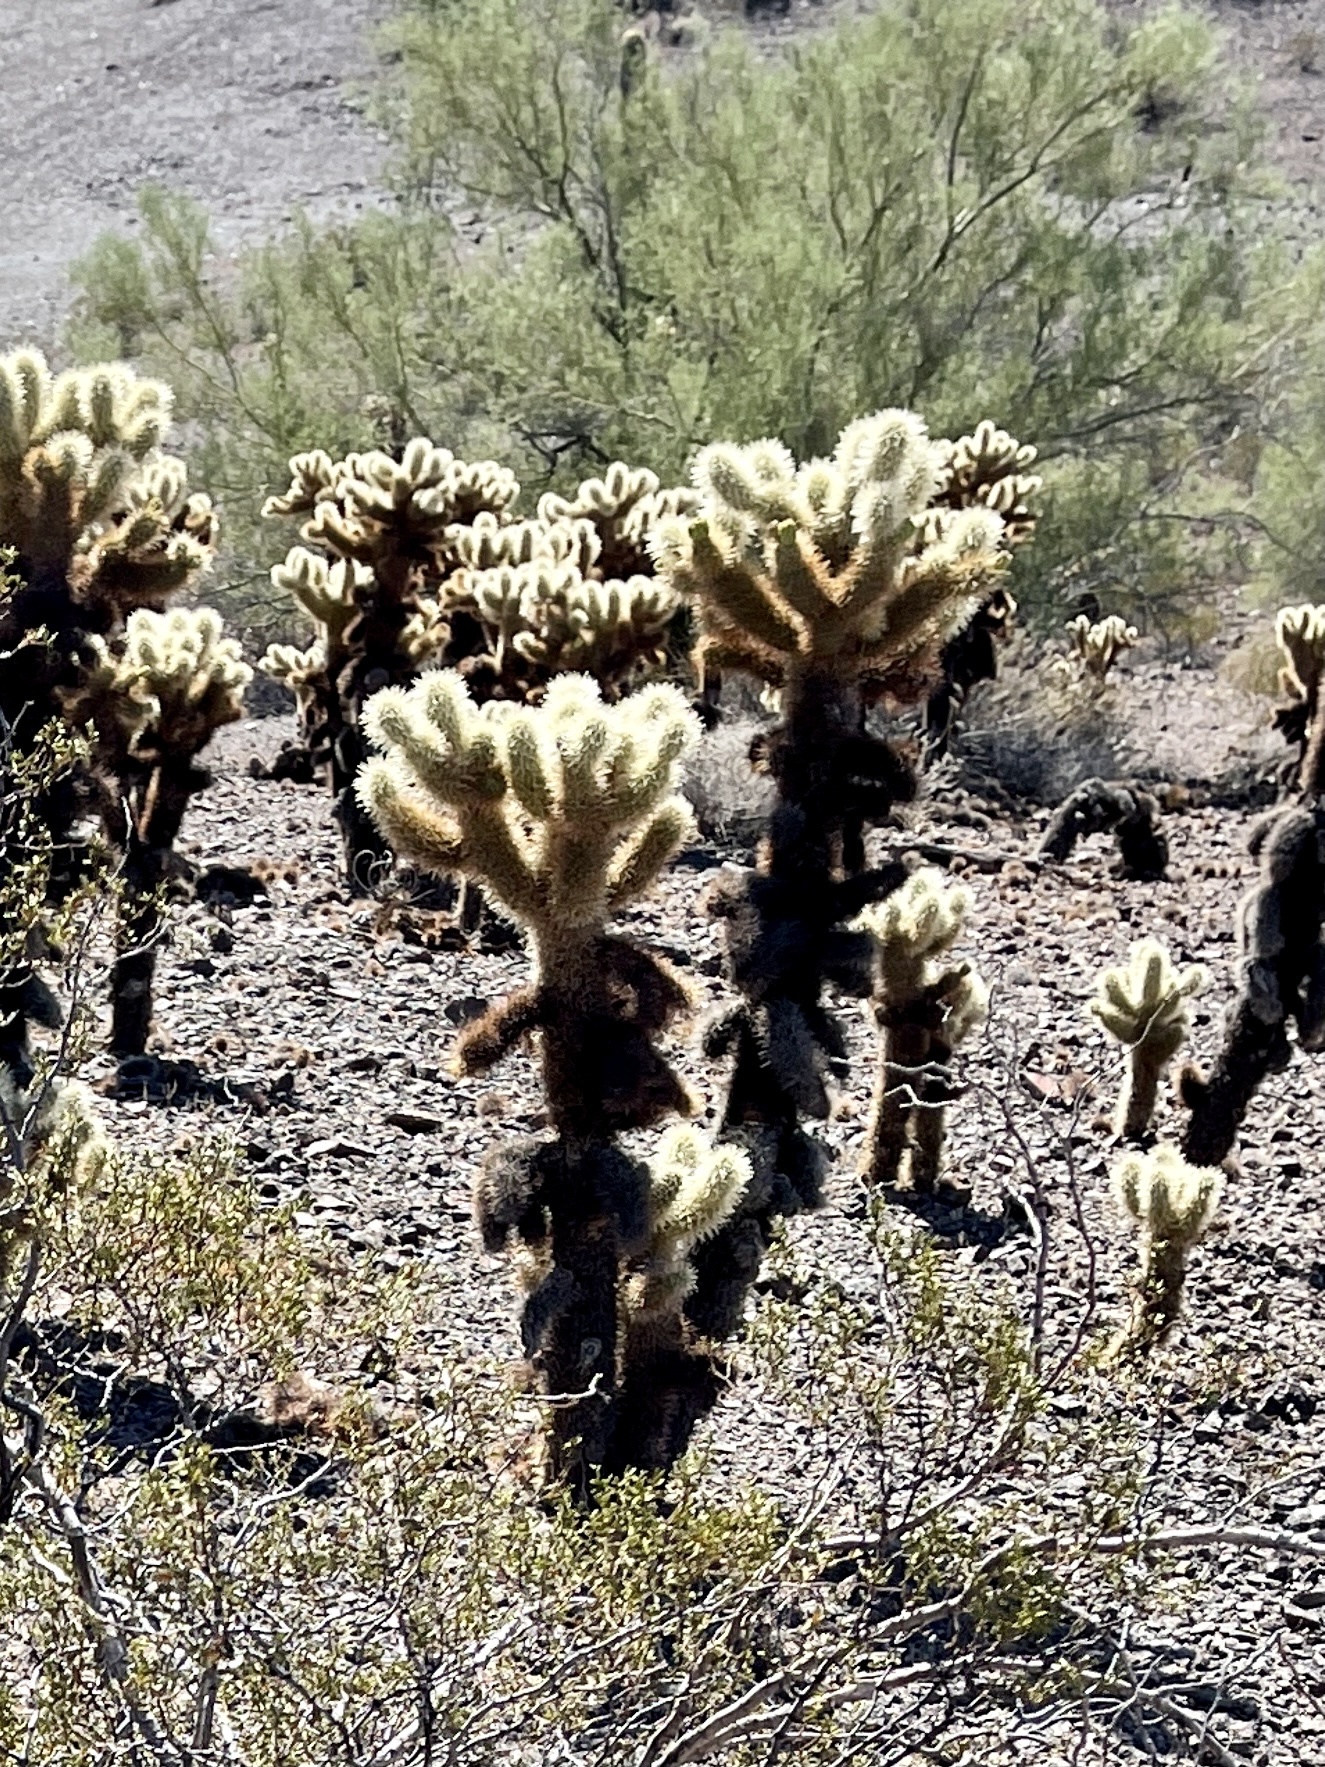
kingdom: Plantae
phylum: Tracheophyta
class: Magnoliopsida
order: Caryophyllales
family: Cactaceae
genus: Cylindropuntia
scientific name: Cylindropuntia fosbergii
